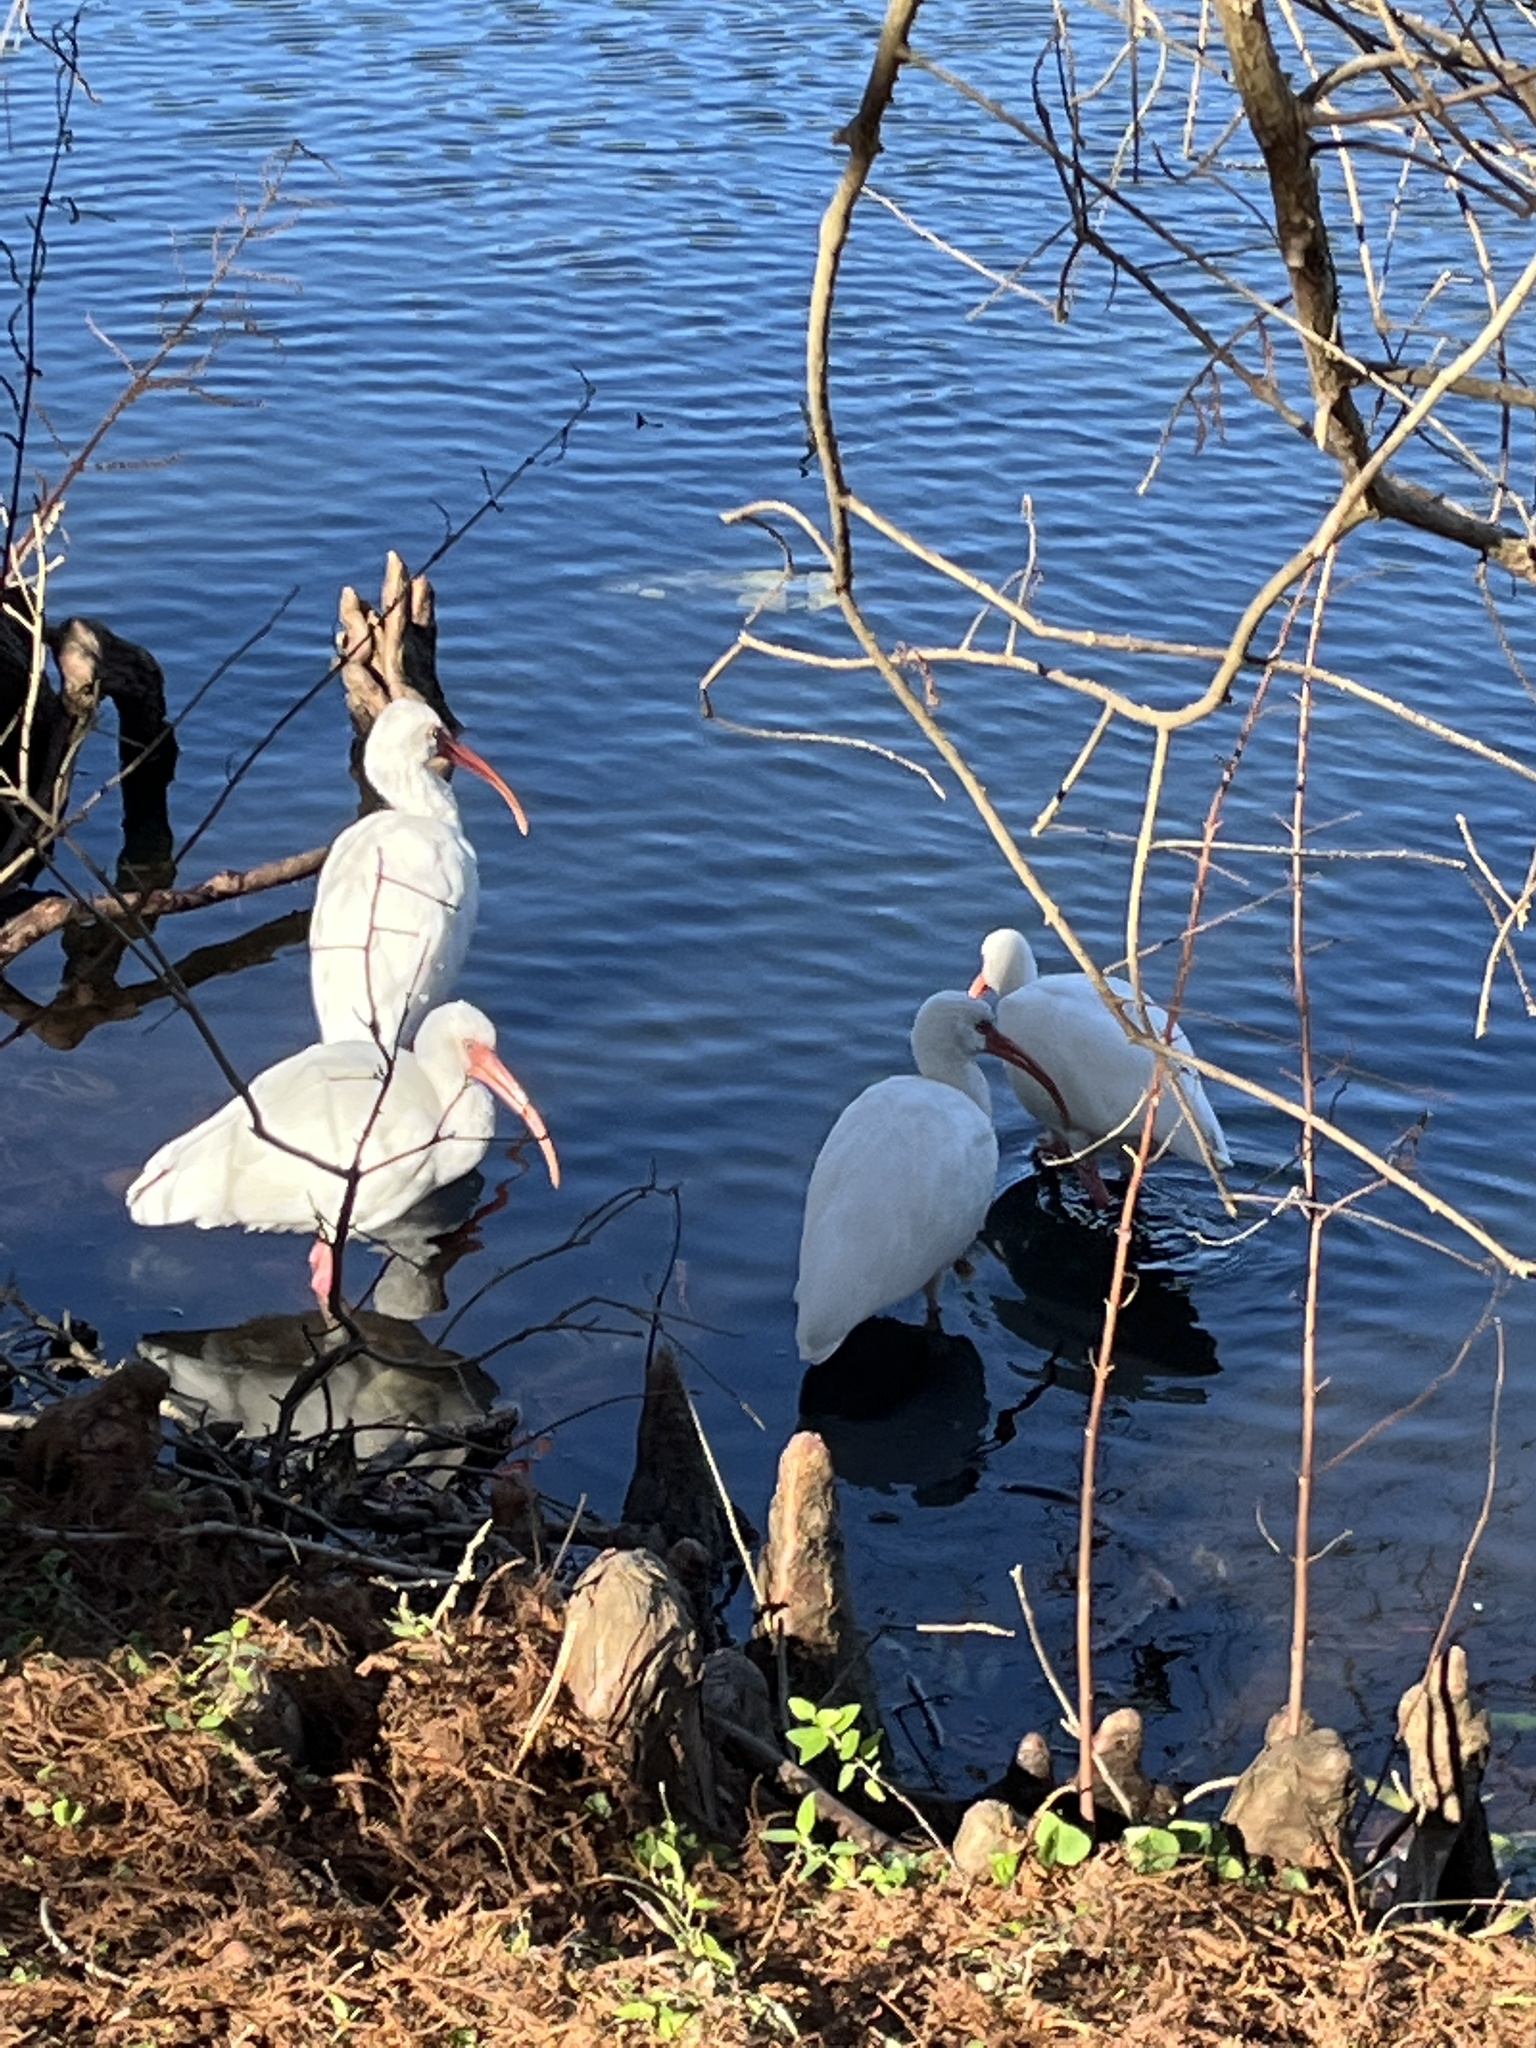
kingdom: Animalia
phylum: Chordata
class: Aves
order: Pelecaniformes
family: Threskiornithidae
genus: Eudocimus
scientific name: Eudocimus albus
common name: White ibis
